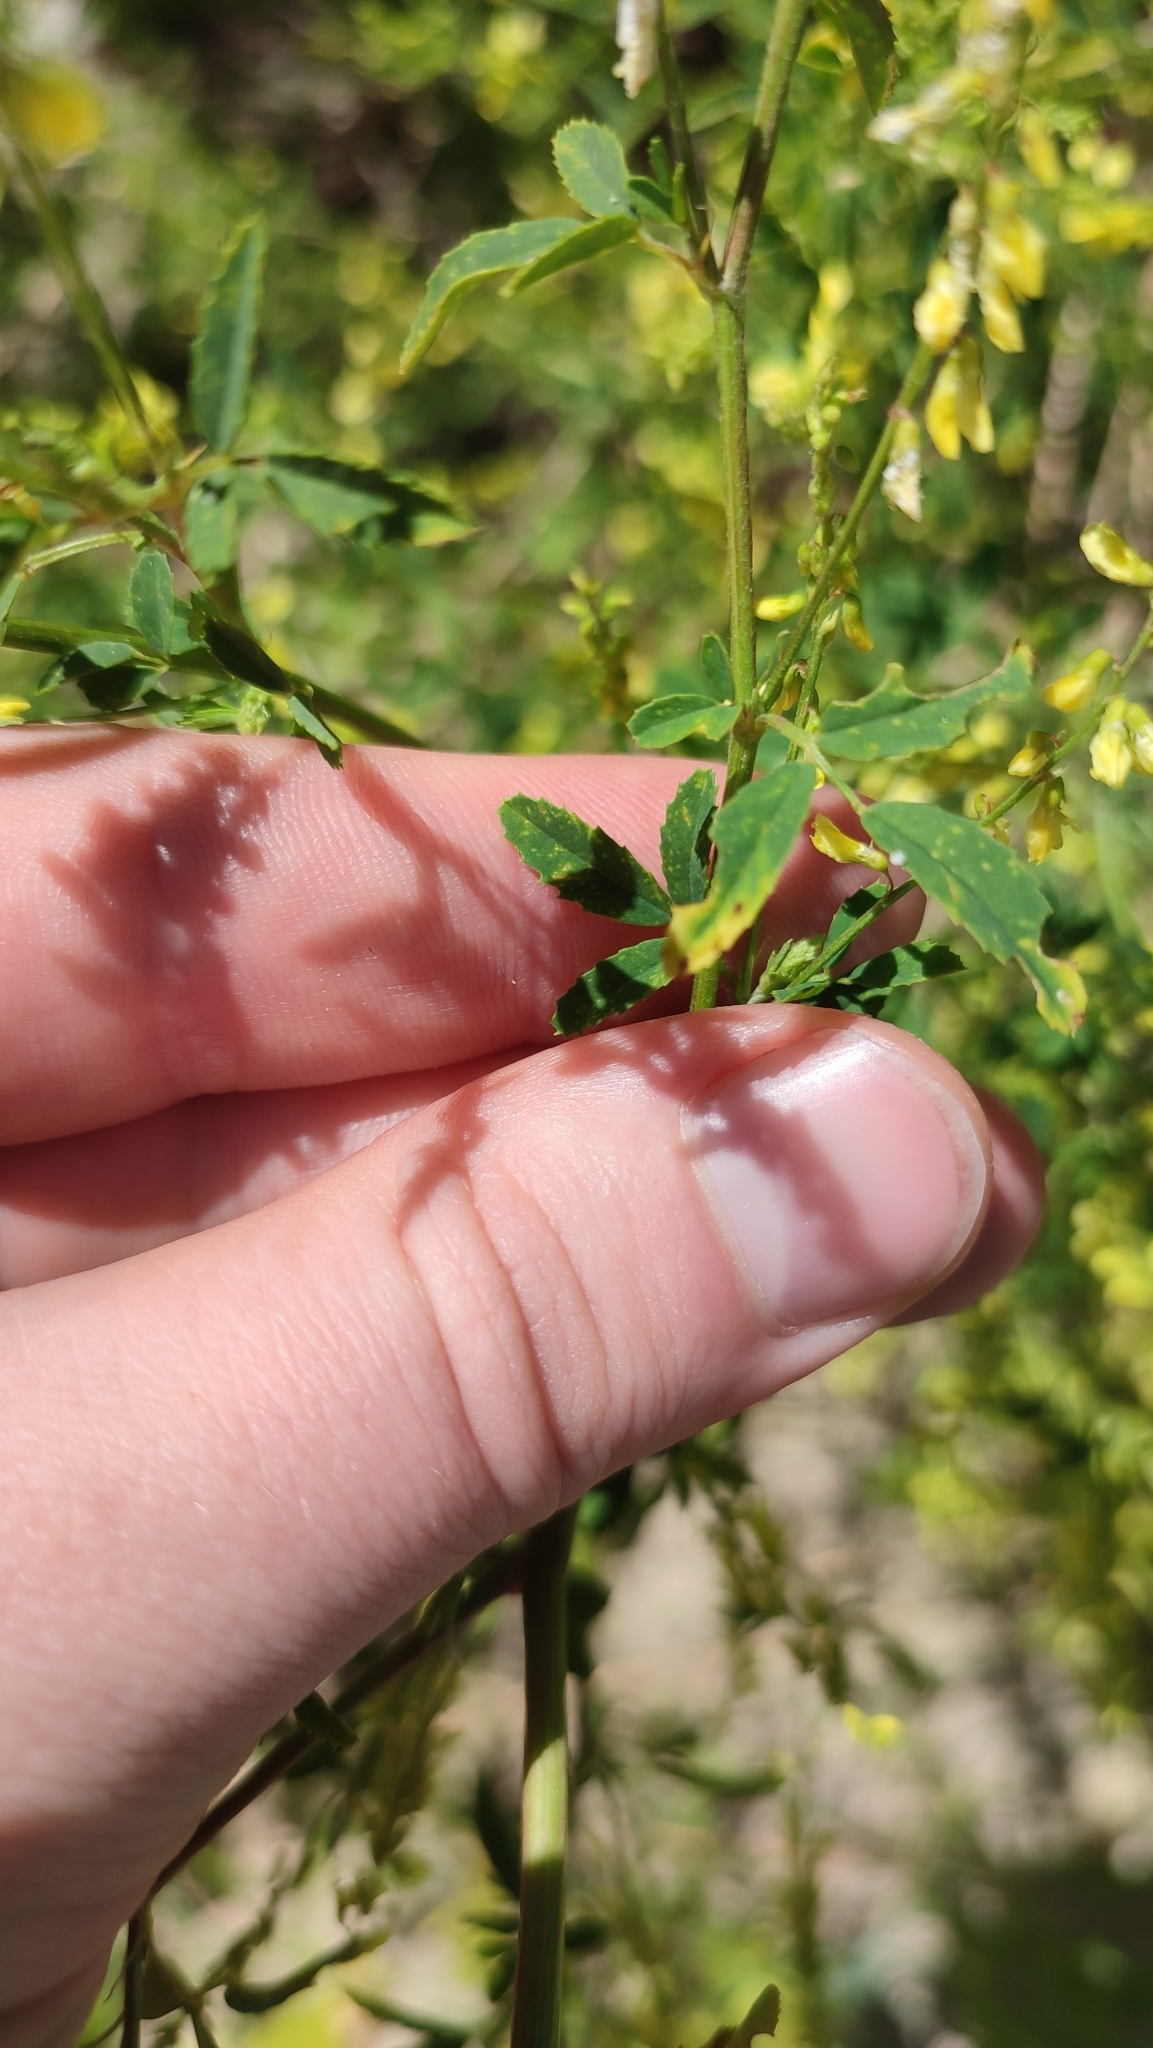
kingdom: Plantae
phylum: Tracheophyta
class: Magnoliopsida
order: Fabales
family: Fabaceae
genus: Melilotus
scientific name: Melilotus officinalis
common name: Sweetclover
